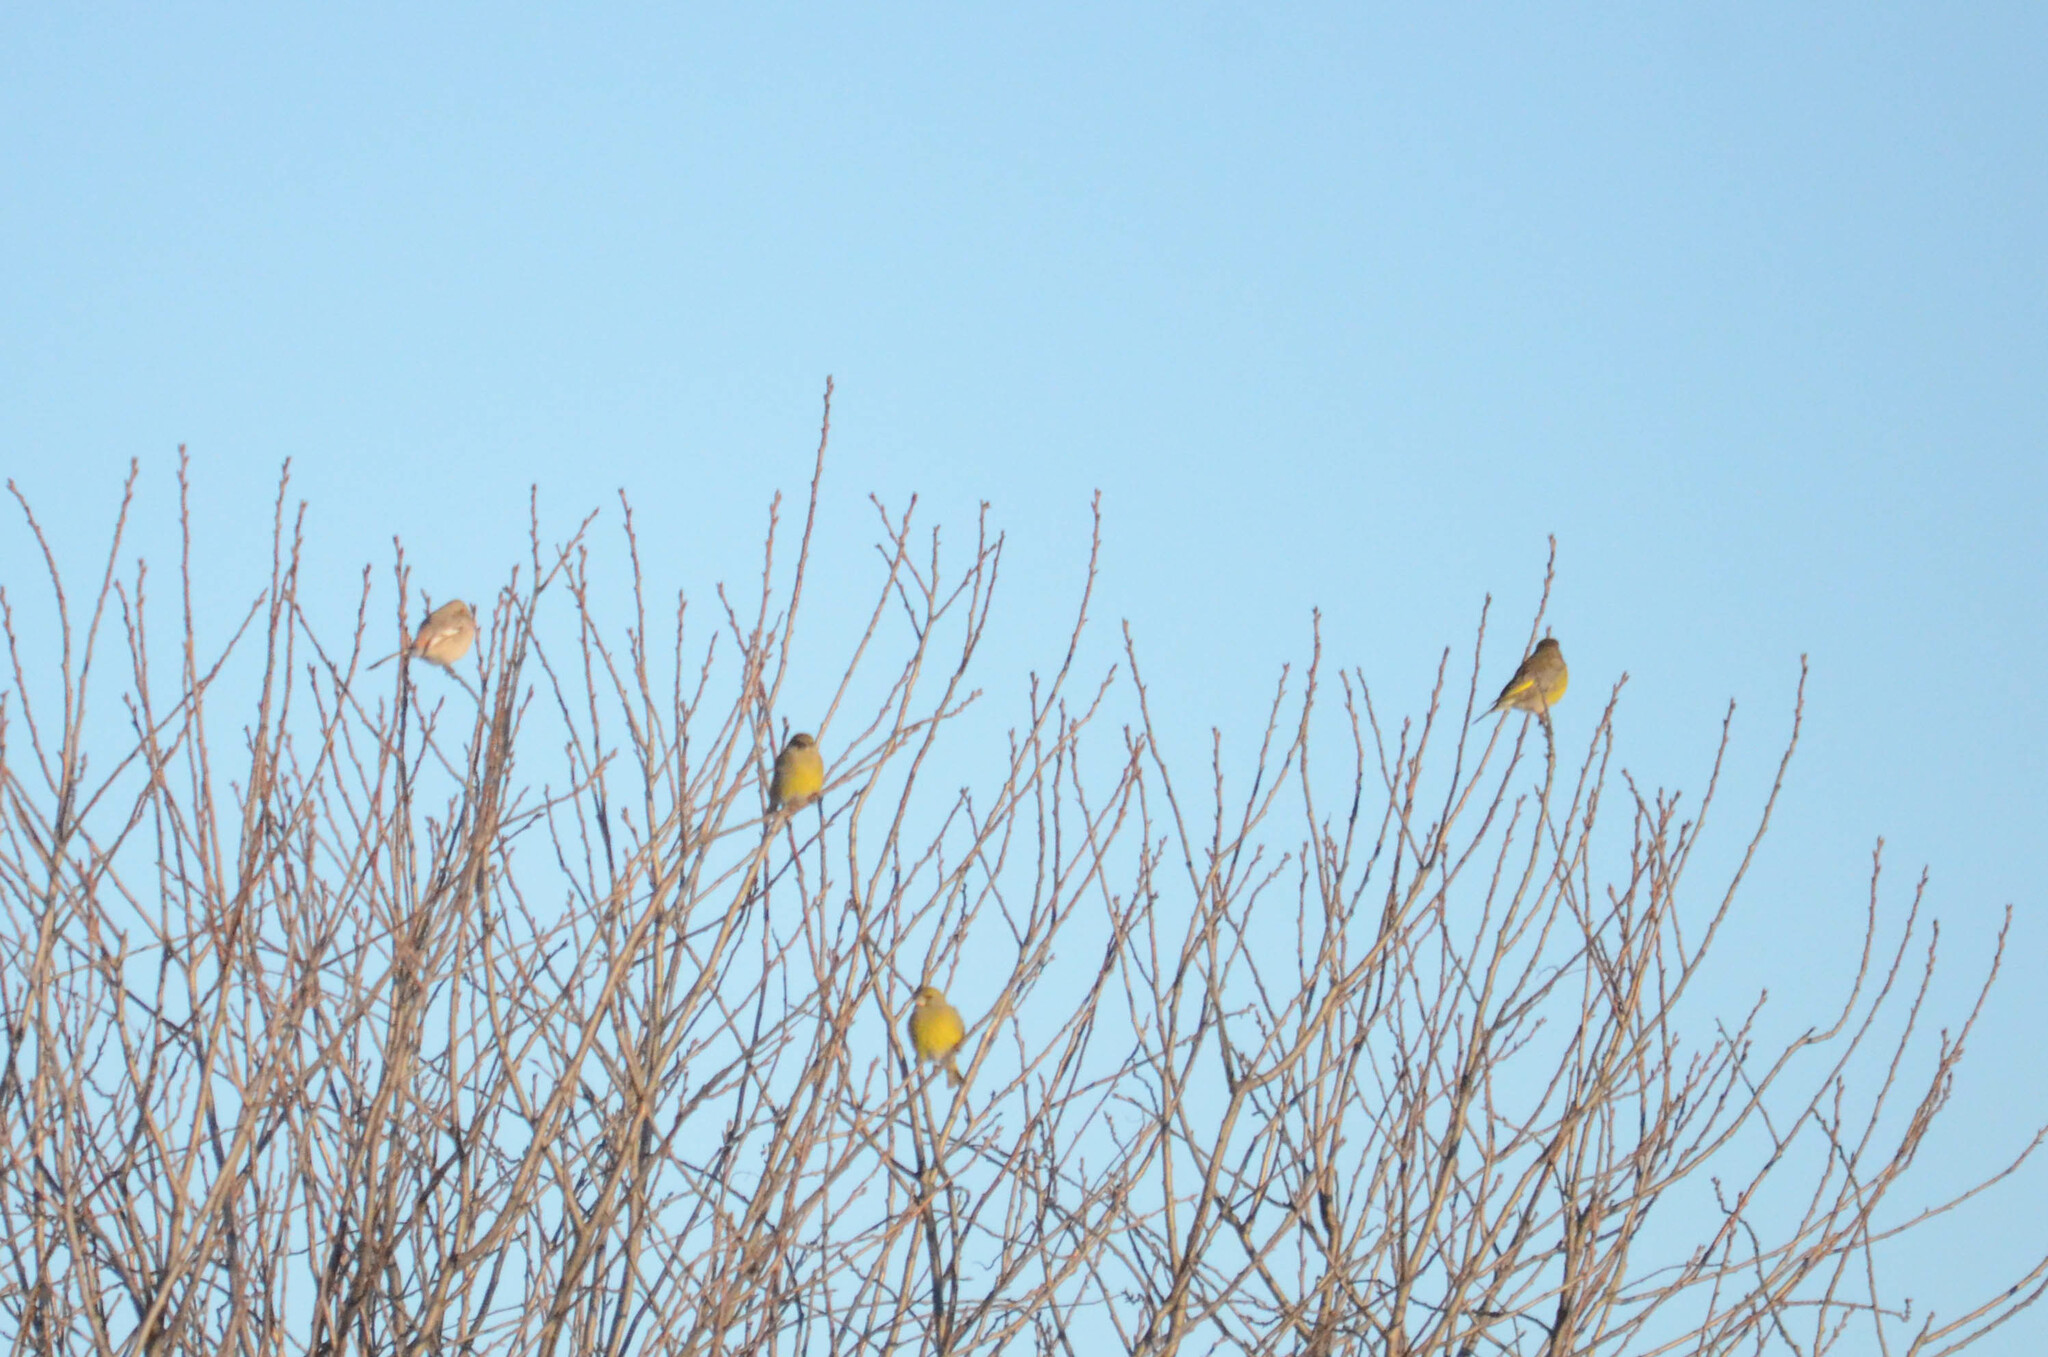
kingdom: Plantae
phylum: Tracheophyta
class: Liliopsida
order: Poales
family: Poaceae
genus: Chloris
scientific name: Chloris chloris
